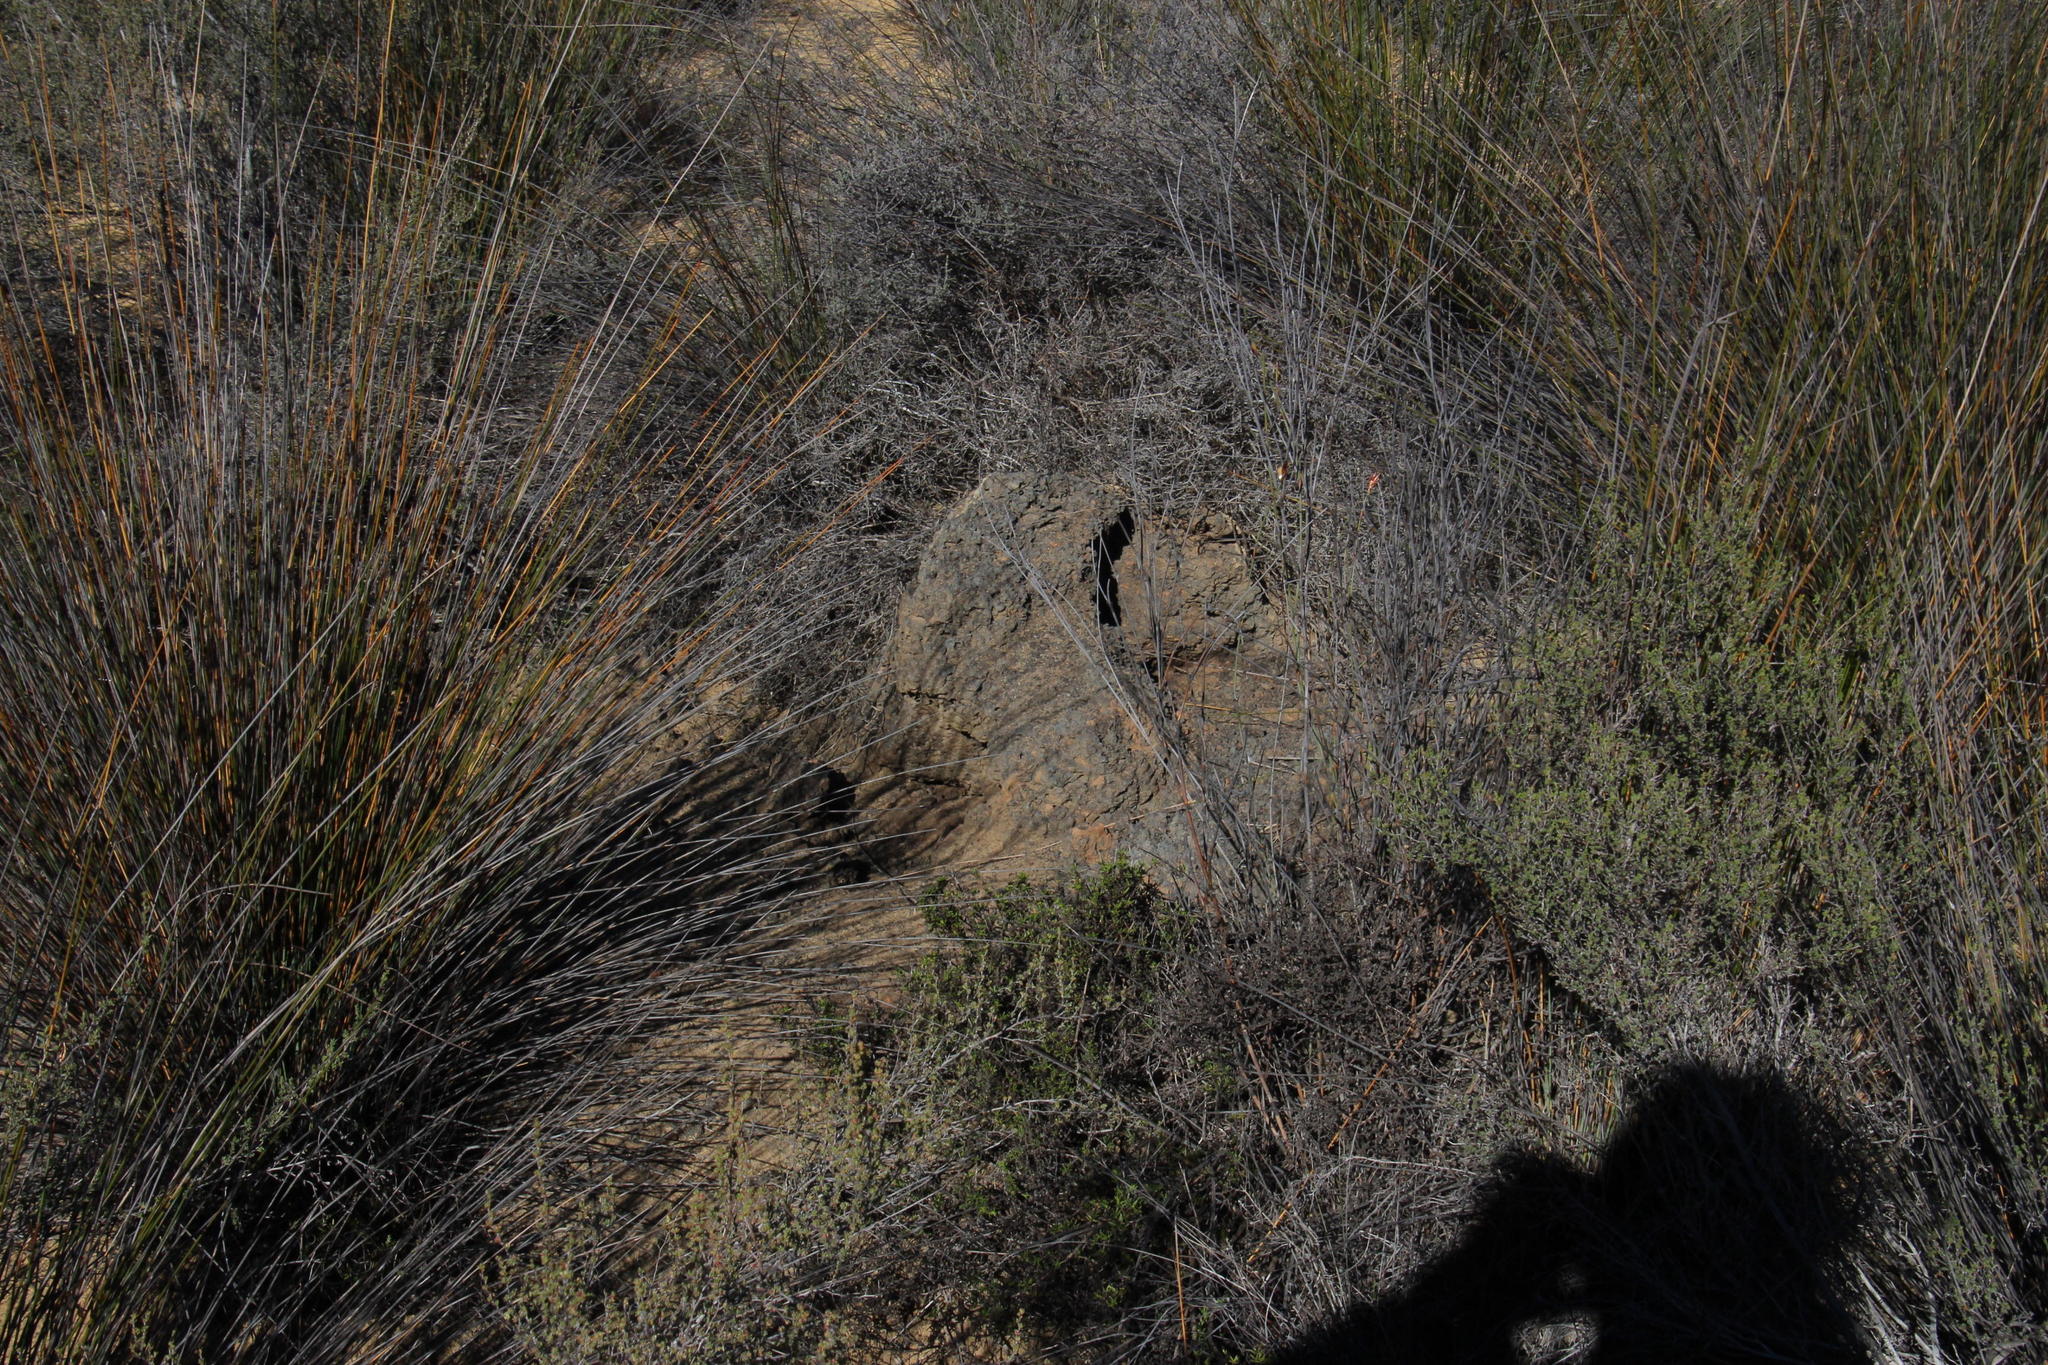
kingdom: Animalia
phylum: Arthropoda
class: Insecta
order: Blattodea
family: Termitidae
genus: Amitermes
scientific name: Amitermes hastatus
